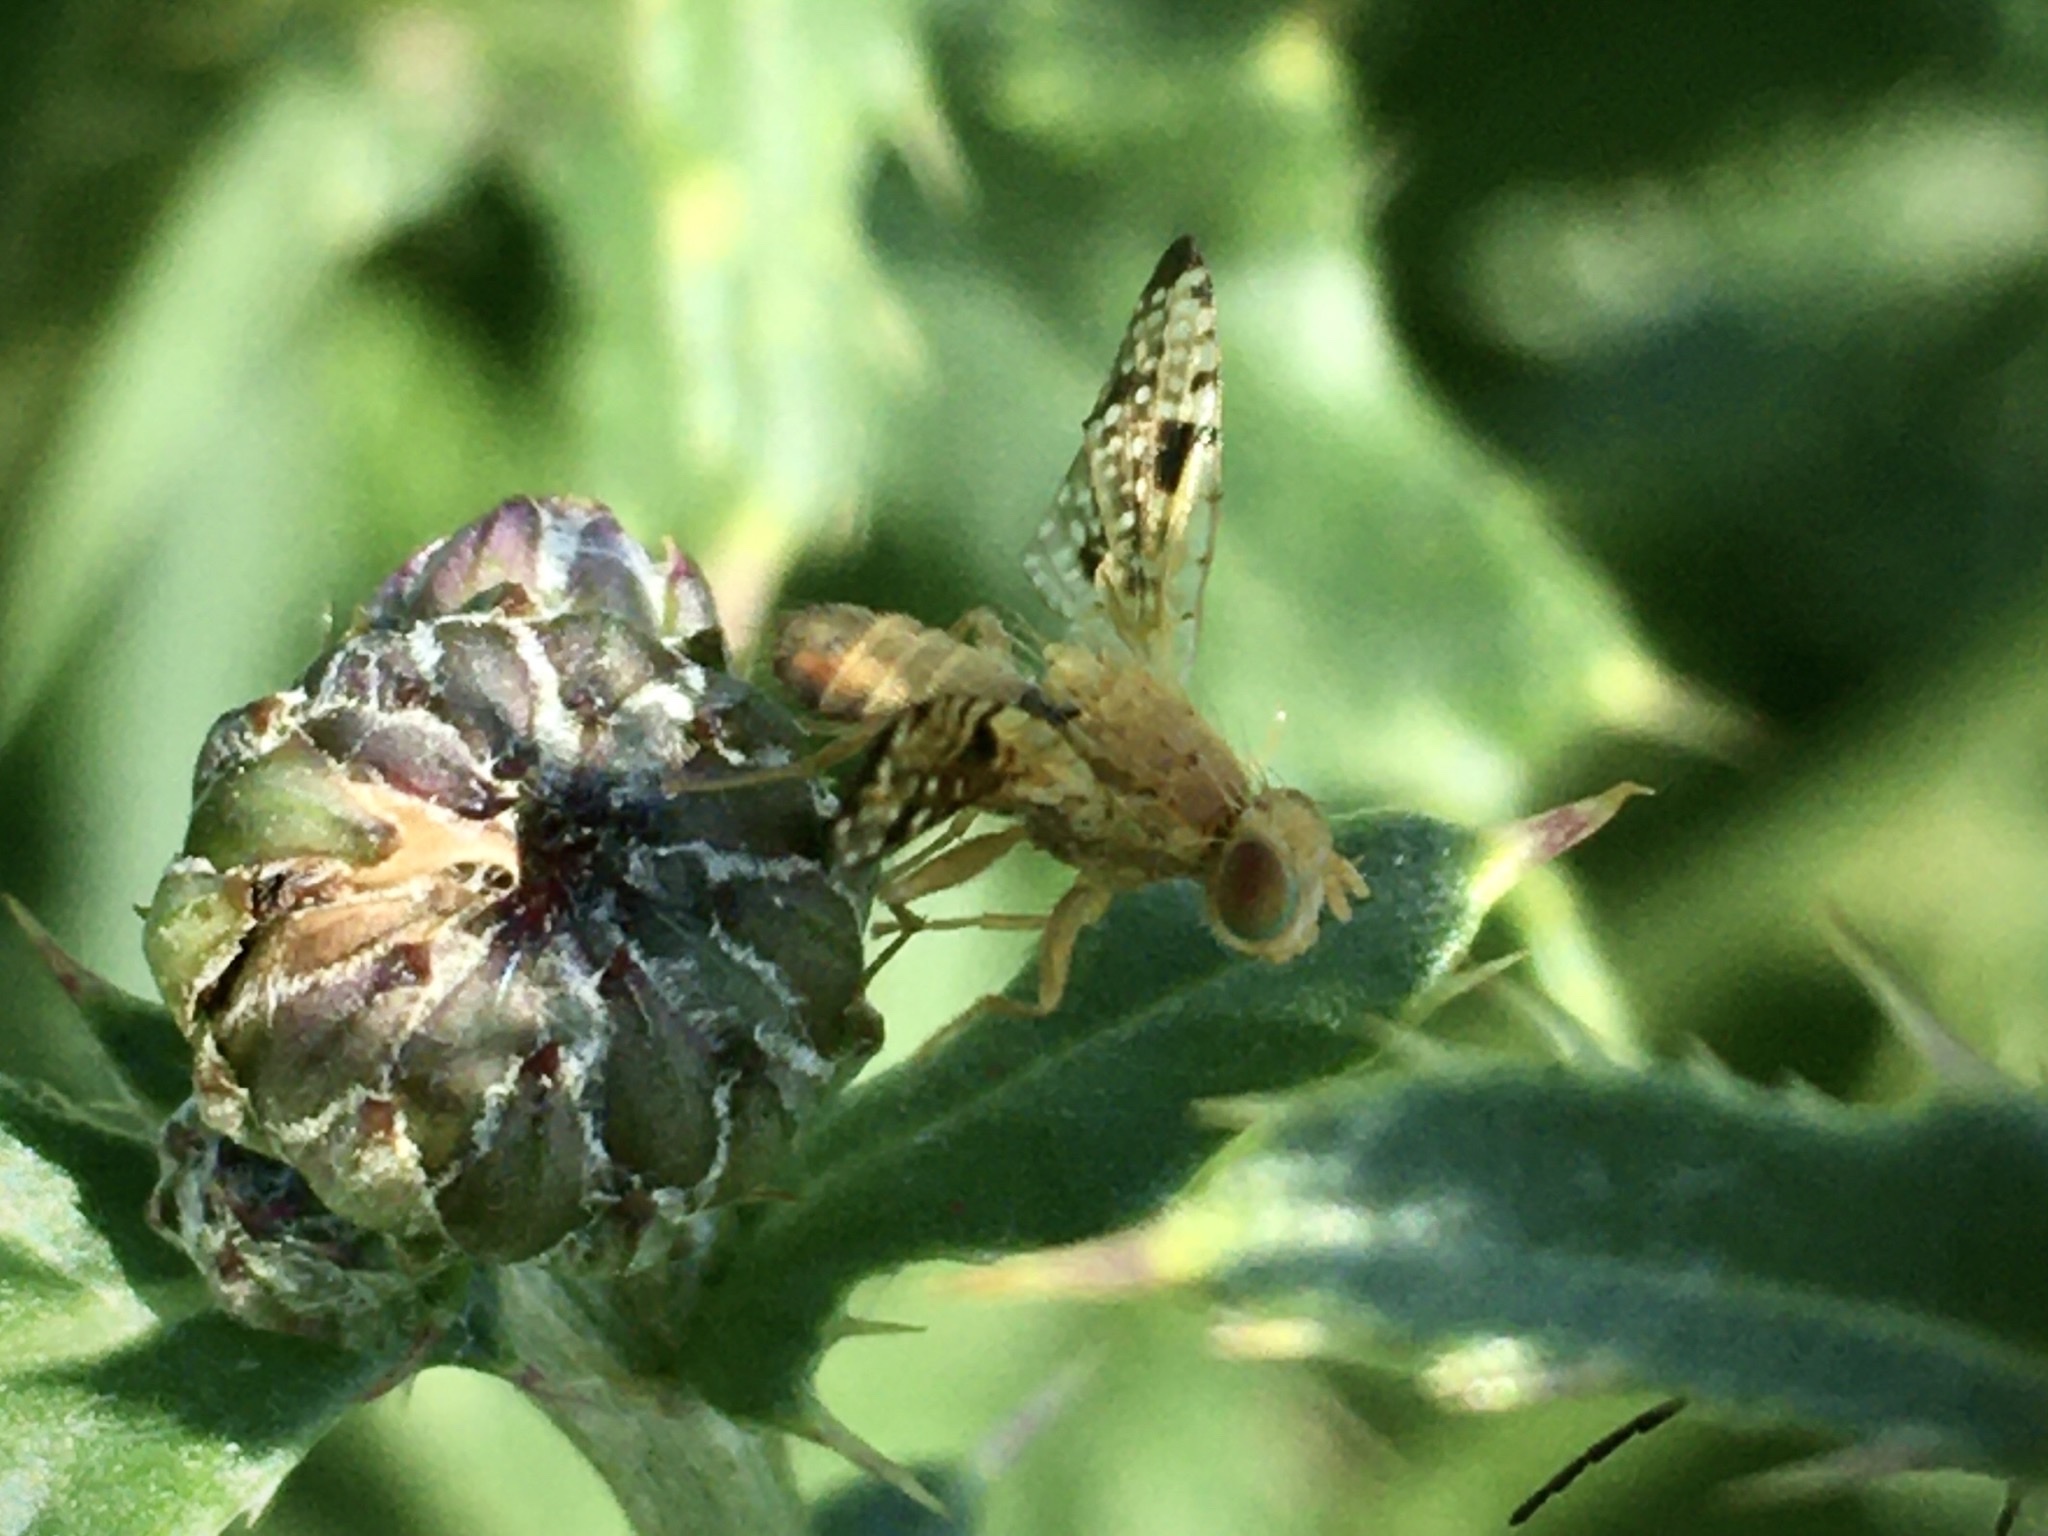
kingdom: Animalia
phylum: Arthropoda
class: Insecta
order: Diptera
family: Tephritidae
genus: Xyphosia
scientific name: Xyphosia miliaria
